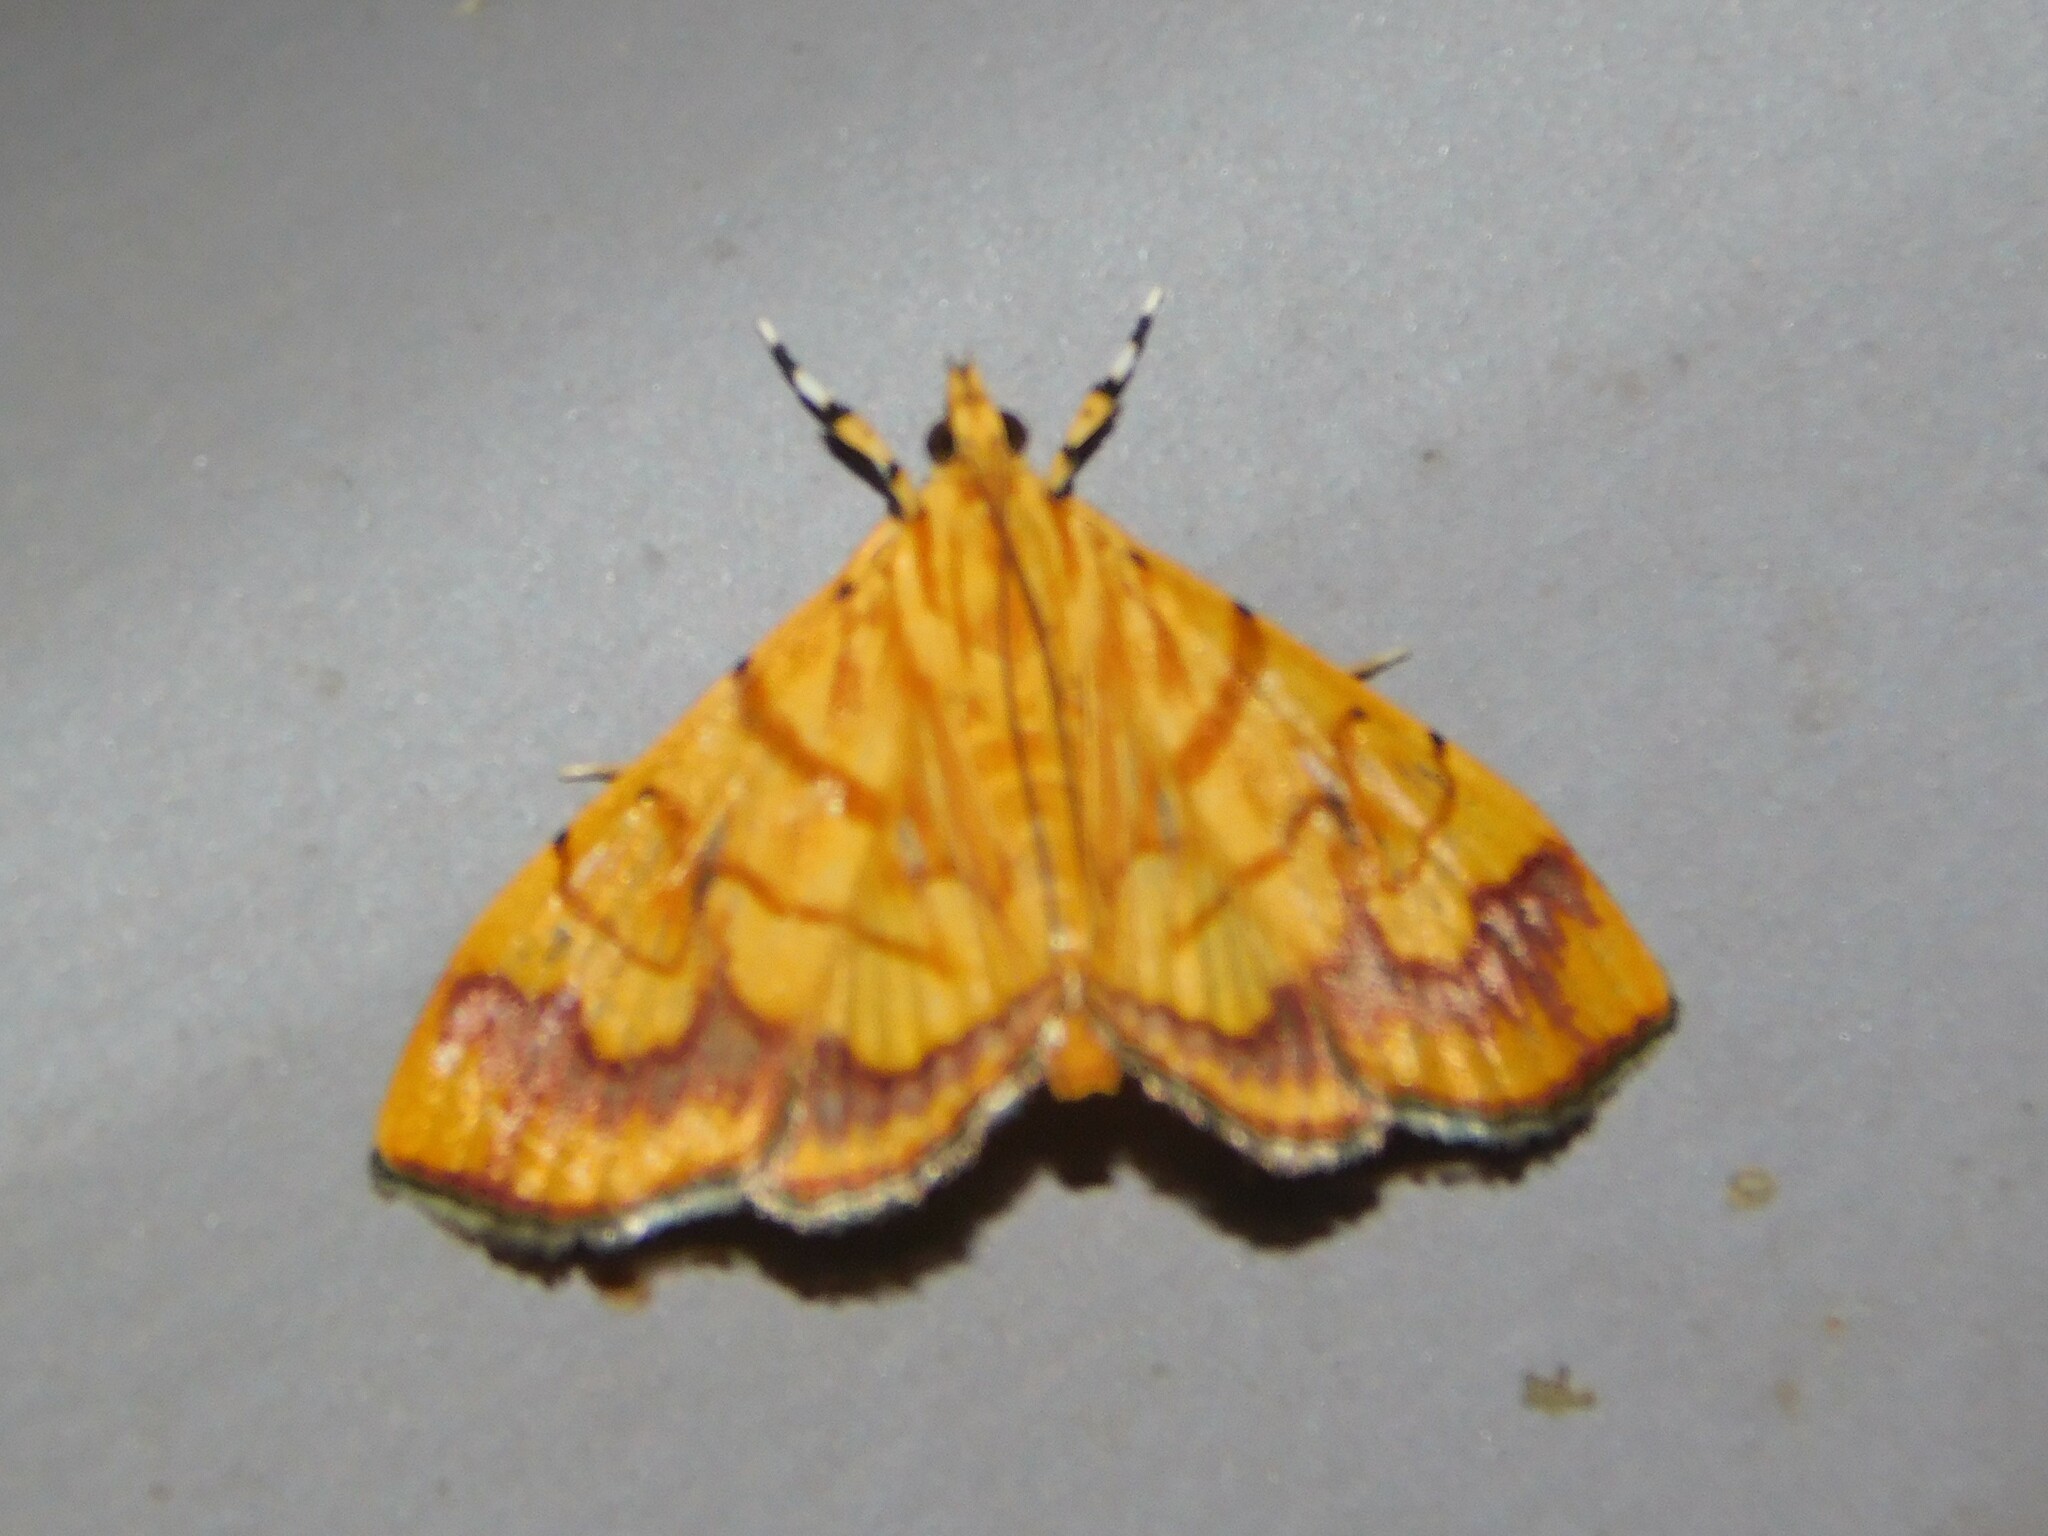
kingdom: Animalia
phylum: Arthropoda
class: Insecta
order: Lepidoptera
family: Crambidae
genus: Cryptosara
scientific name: Cryptosara caritalis
